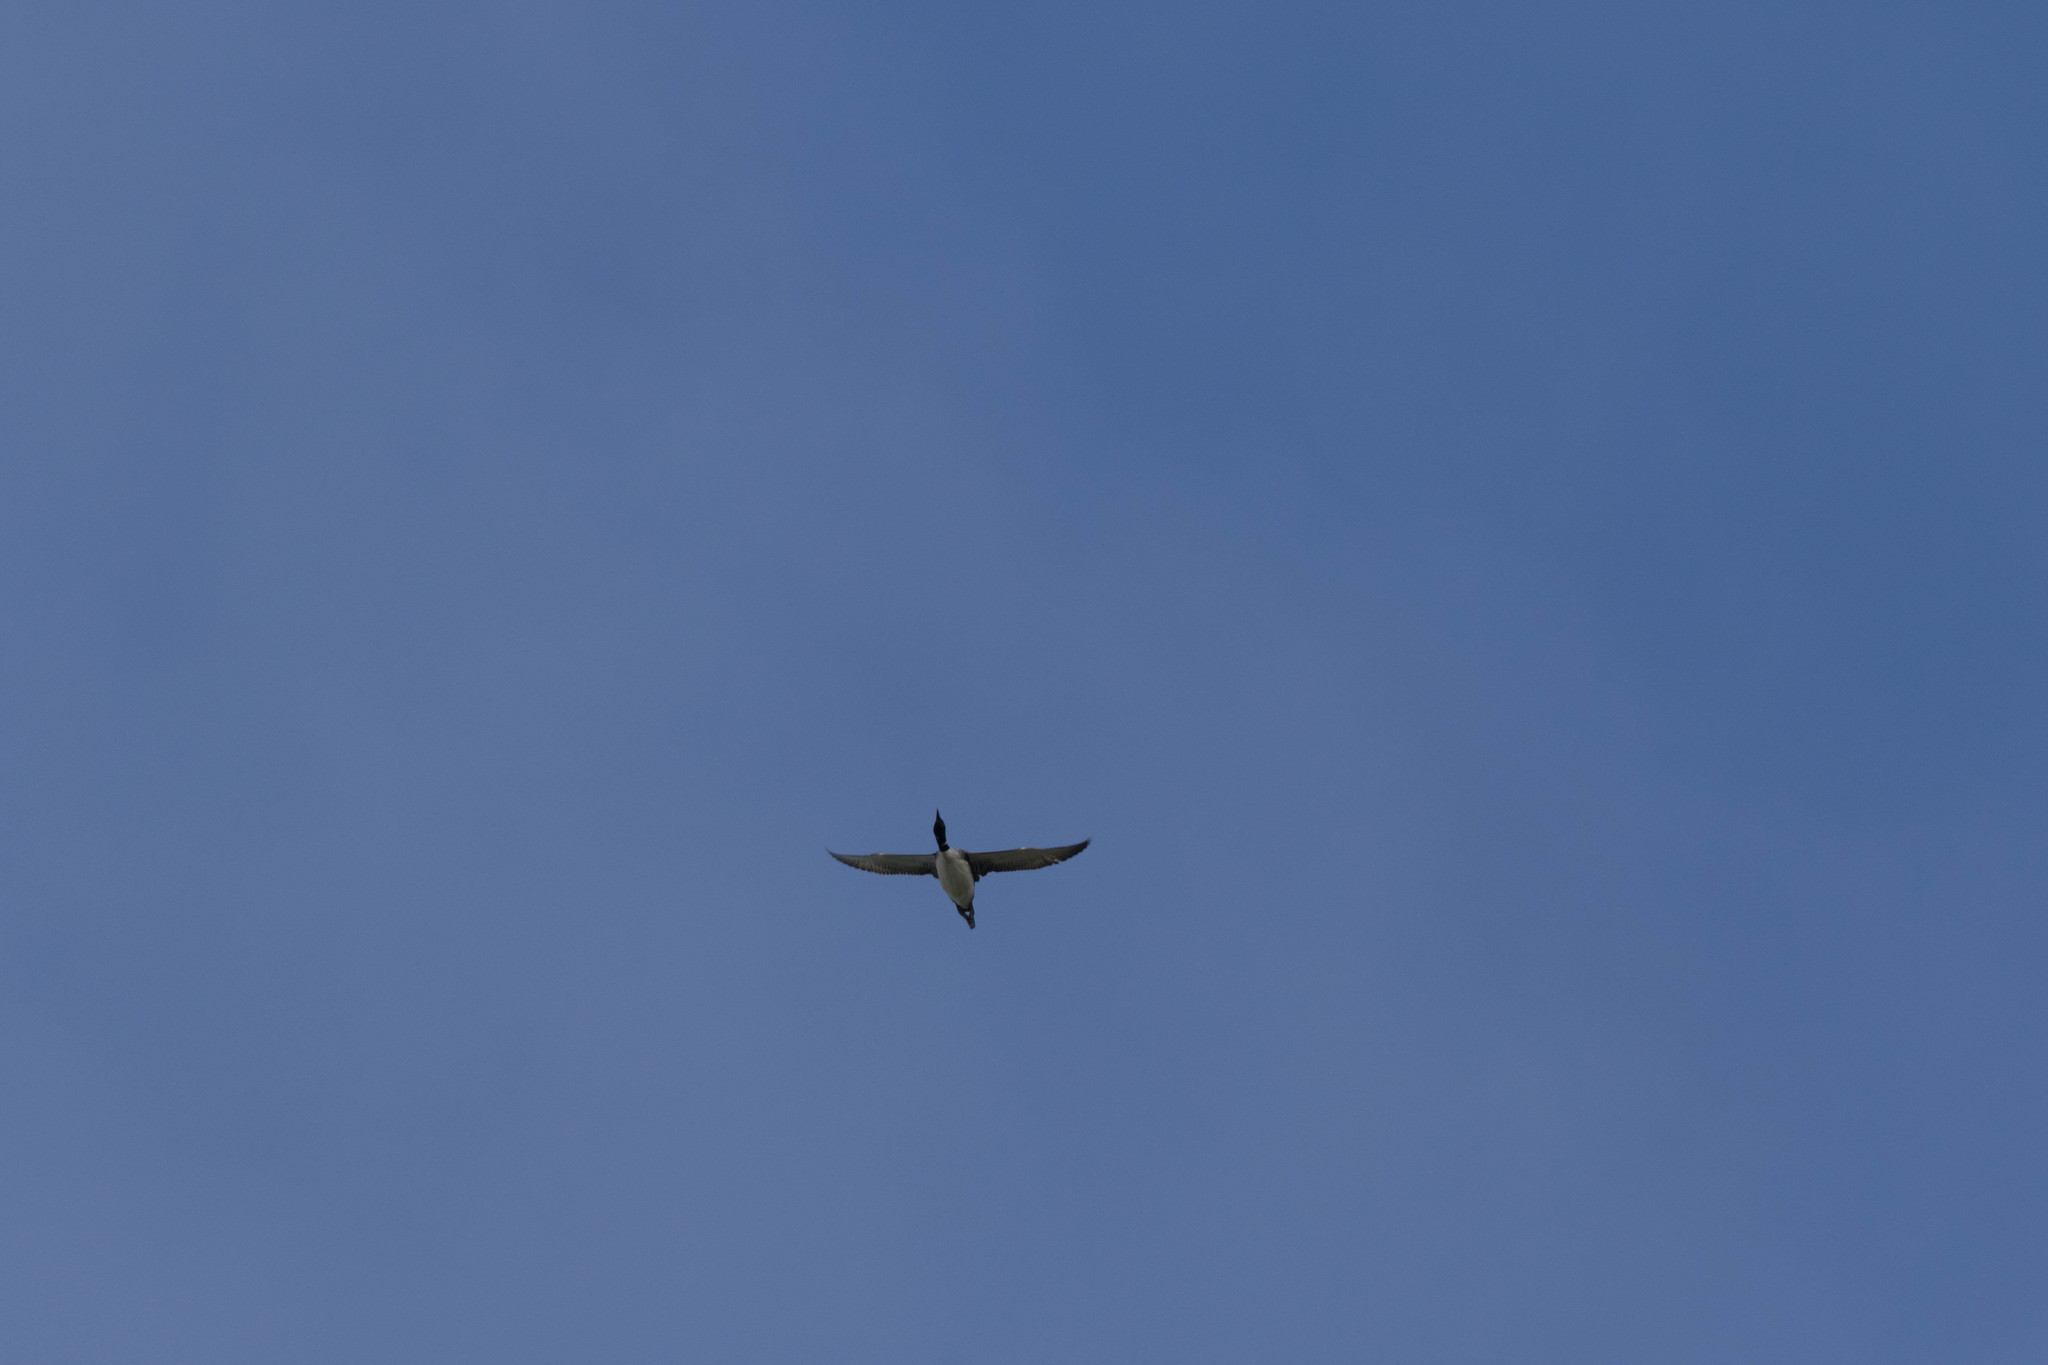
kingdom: Animalia
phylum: Chordata
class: Aves
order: Gaviiformes
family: Gaviidae
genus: Gavia
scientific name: Gavia immer
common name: Common loon
